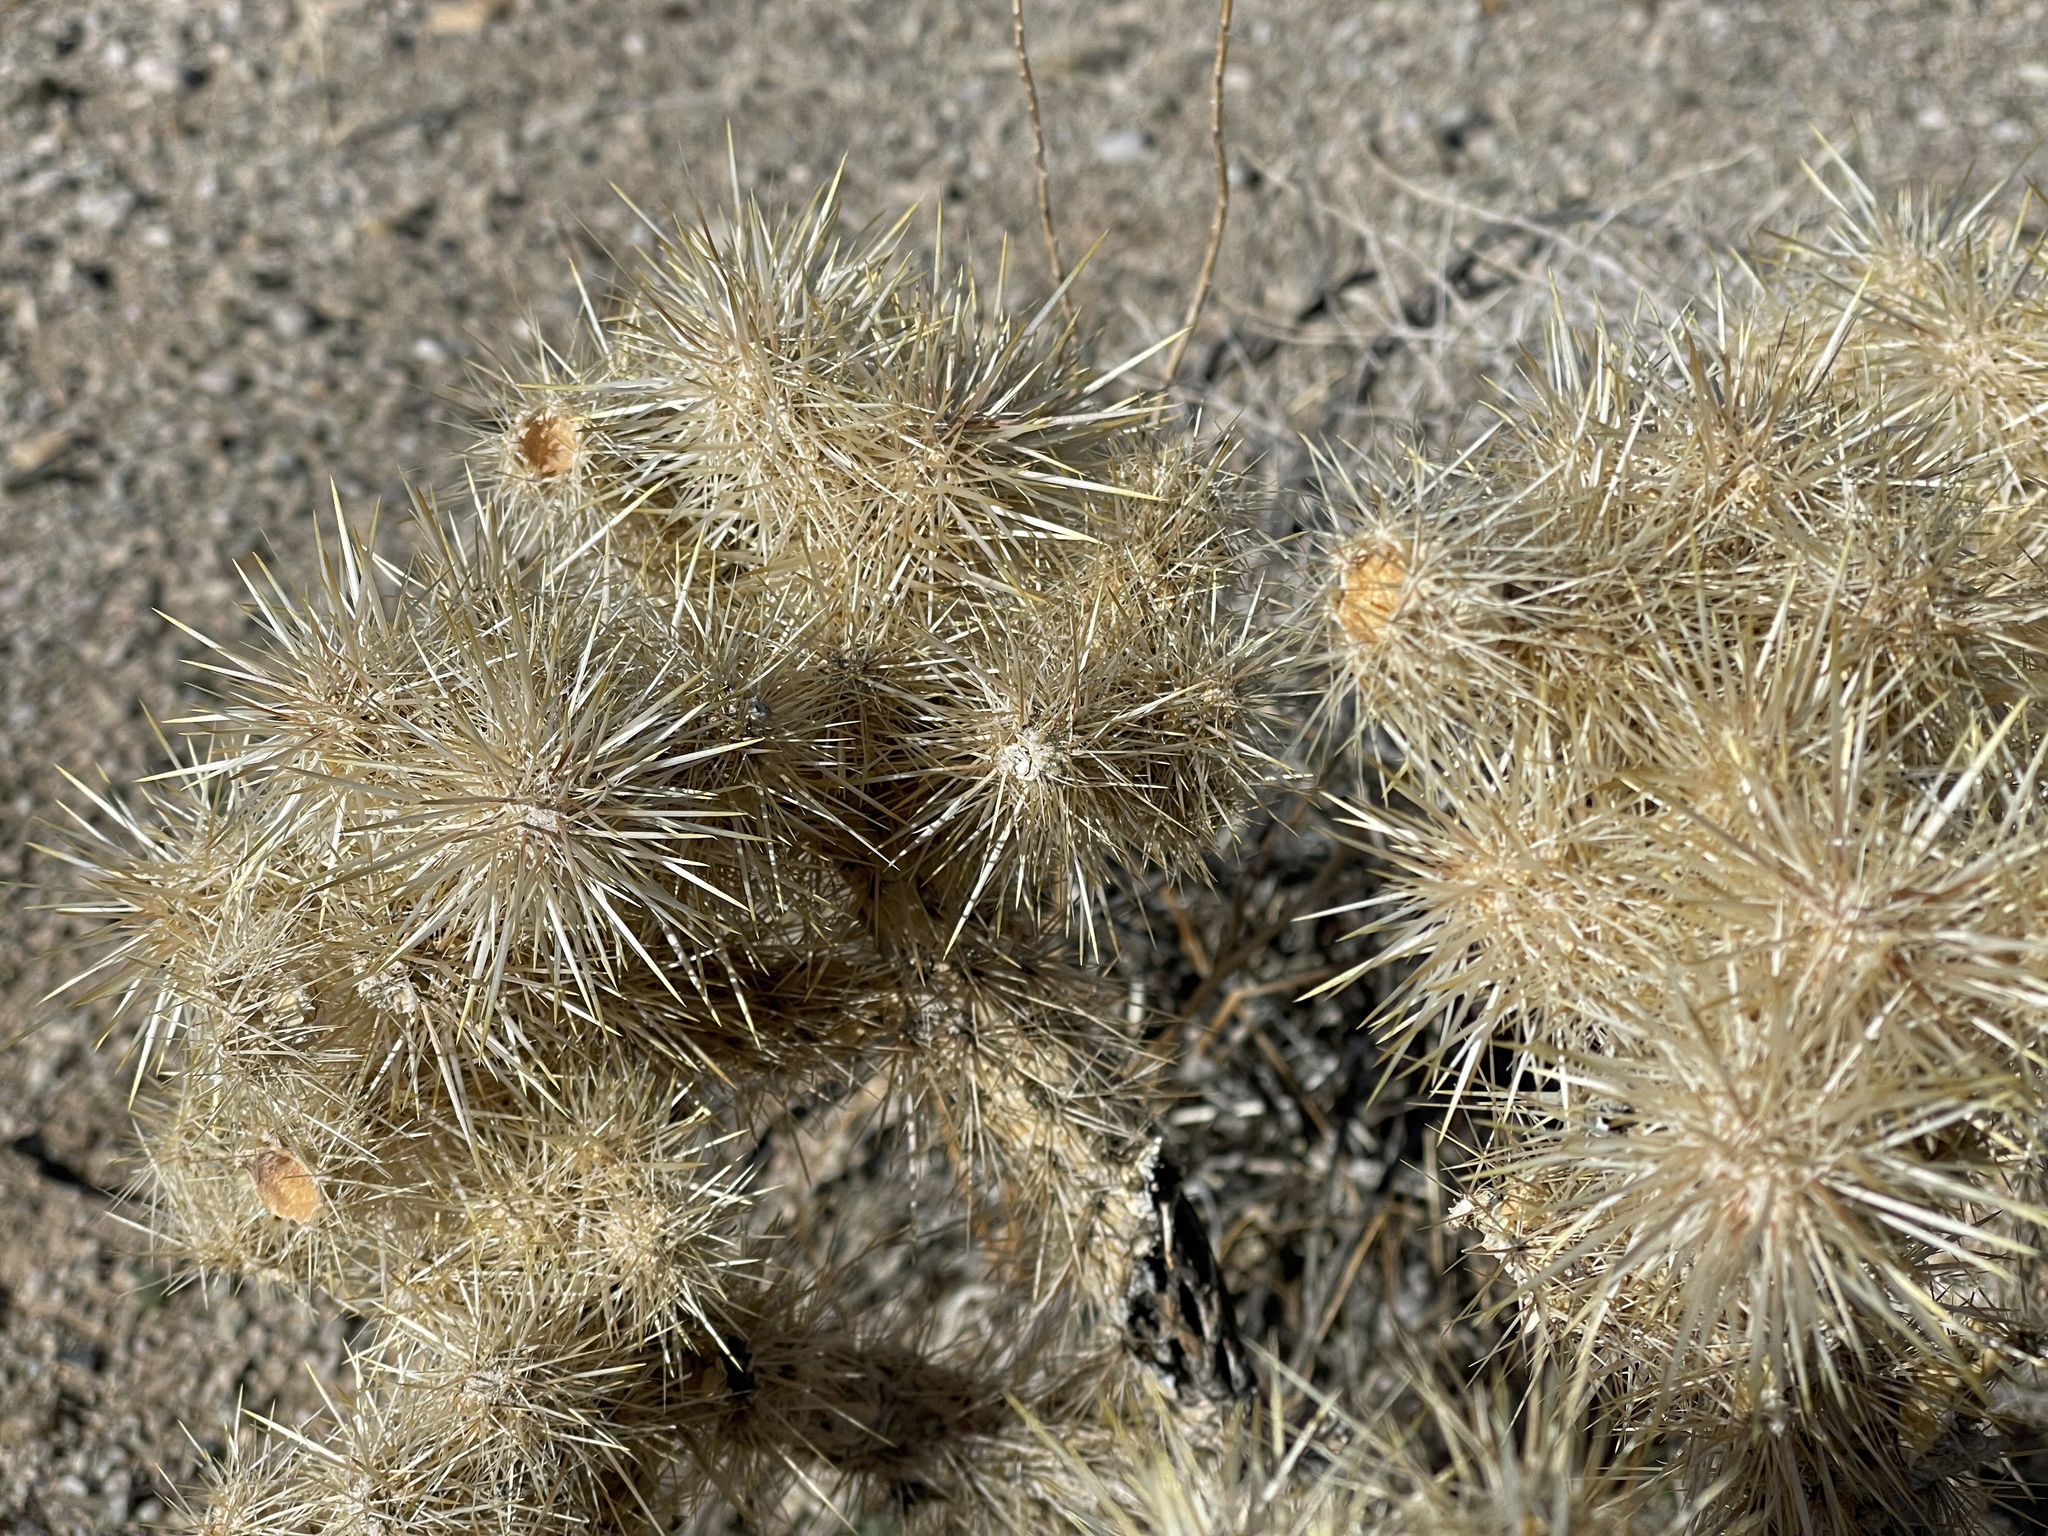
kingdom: Plantae
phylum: Tracheophyta
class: Magnoliopsida
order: Caryophyllales
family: Cactaceae
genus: Cylindropuntia
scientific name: Cylindropuntia echinocarpa
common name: Ground cholla
